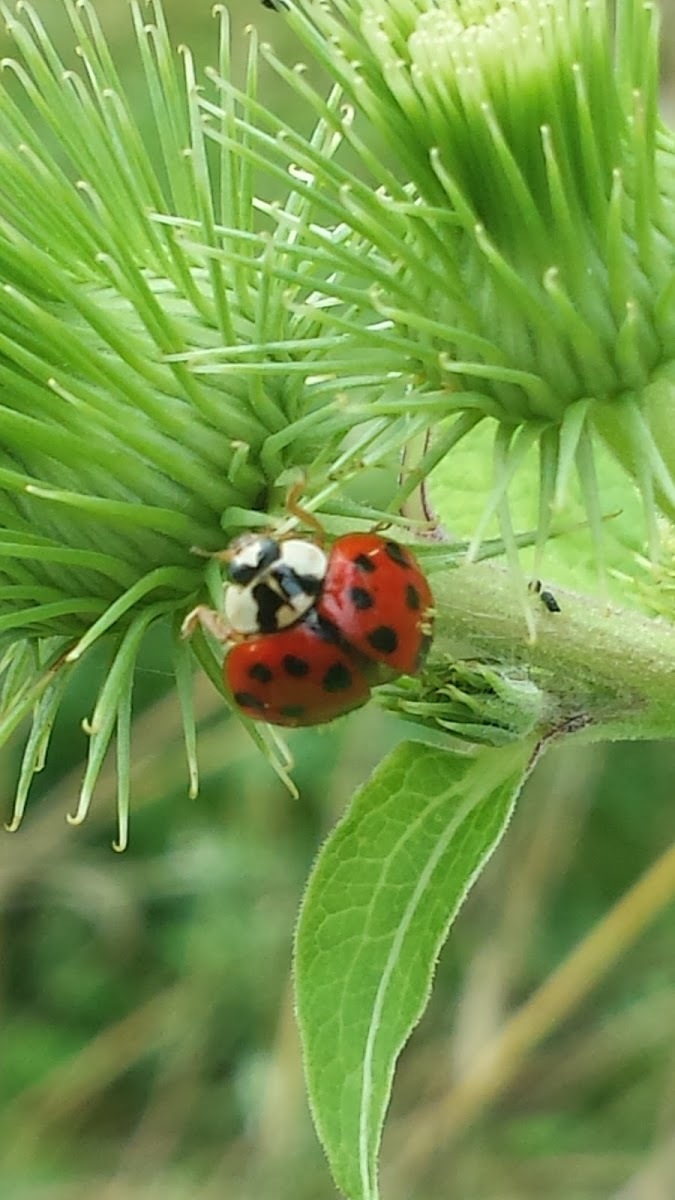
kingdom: Animalia
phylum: Arthropoda
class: Insecta
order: Coleoptera
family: Coccinellidae
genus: Harmonia
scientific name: Harmonia axyridis
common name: Harlequin ladybird
